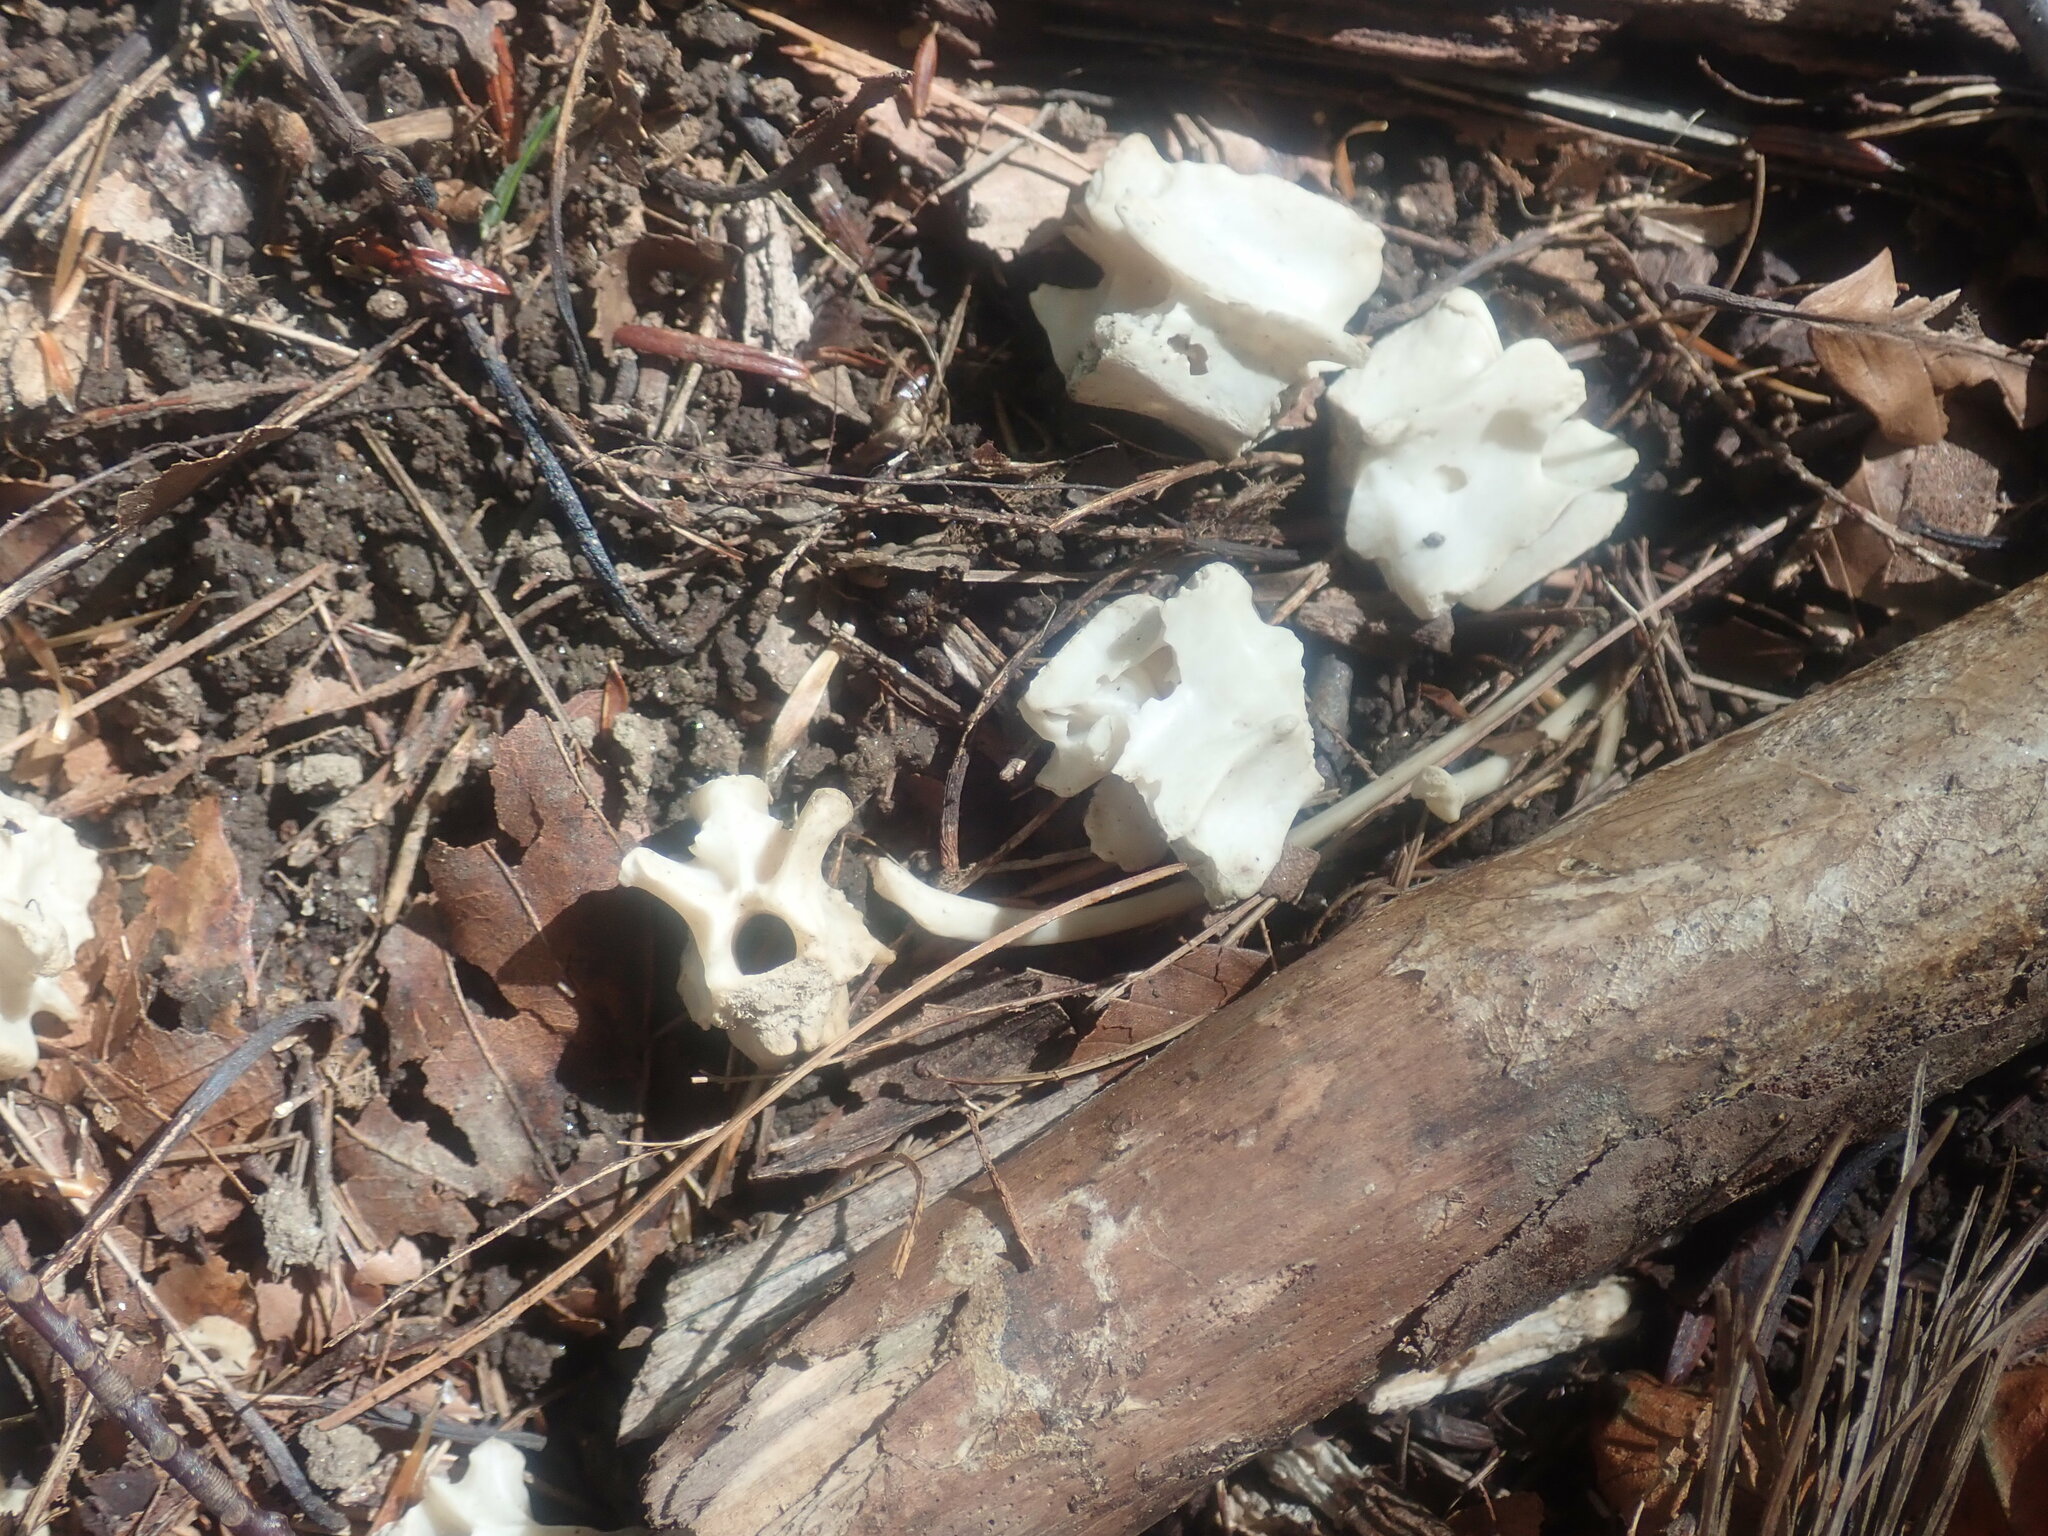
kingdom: Animalia
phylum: Chordata
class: Mammalia
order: Didelphimorphia
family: Didelphidae
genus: Didelphis
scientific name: Didelphis virginiana
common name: Virginia opossum
